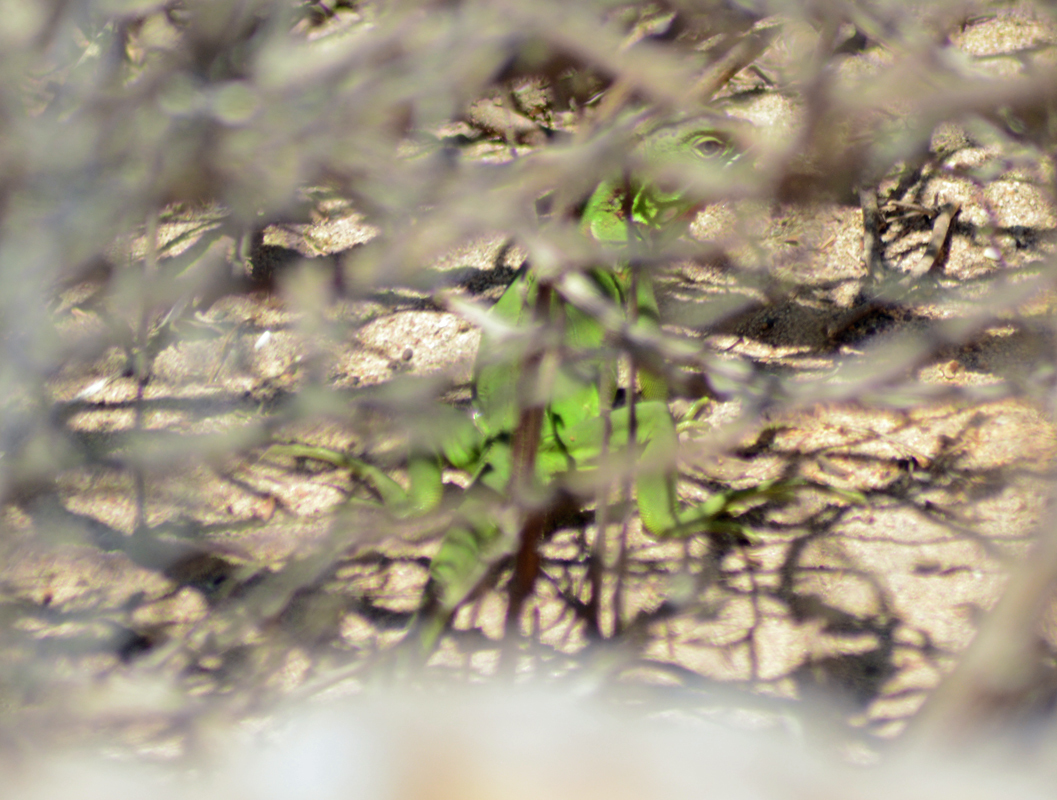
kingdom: Animalia
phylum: Chordata
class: Squamata
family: Iguanidae
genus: Iguana
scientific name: Iguana iguana
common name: Green iguana
